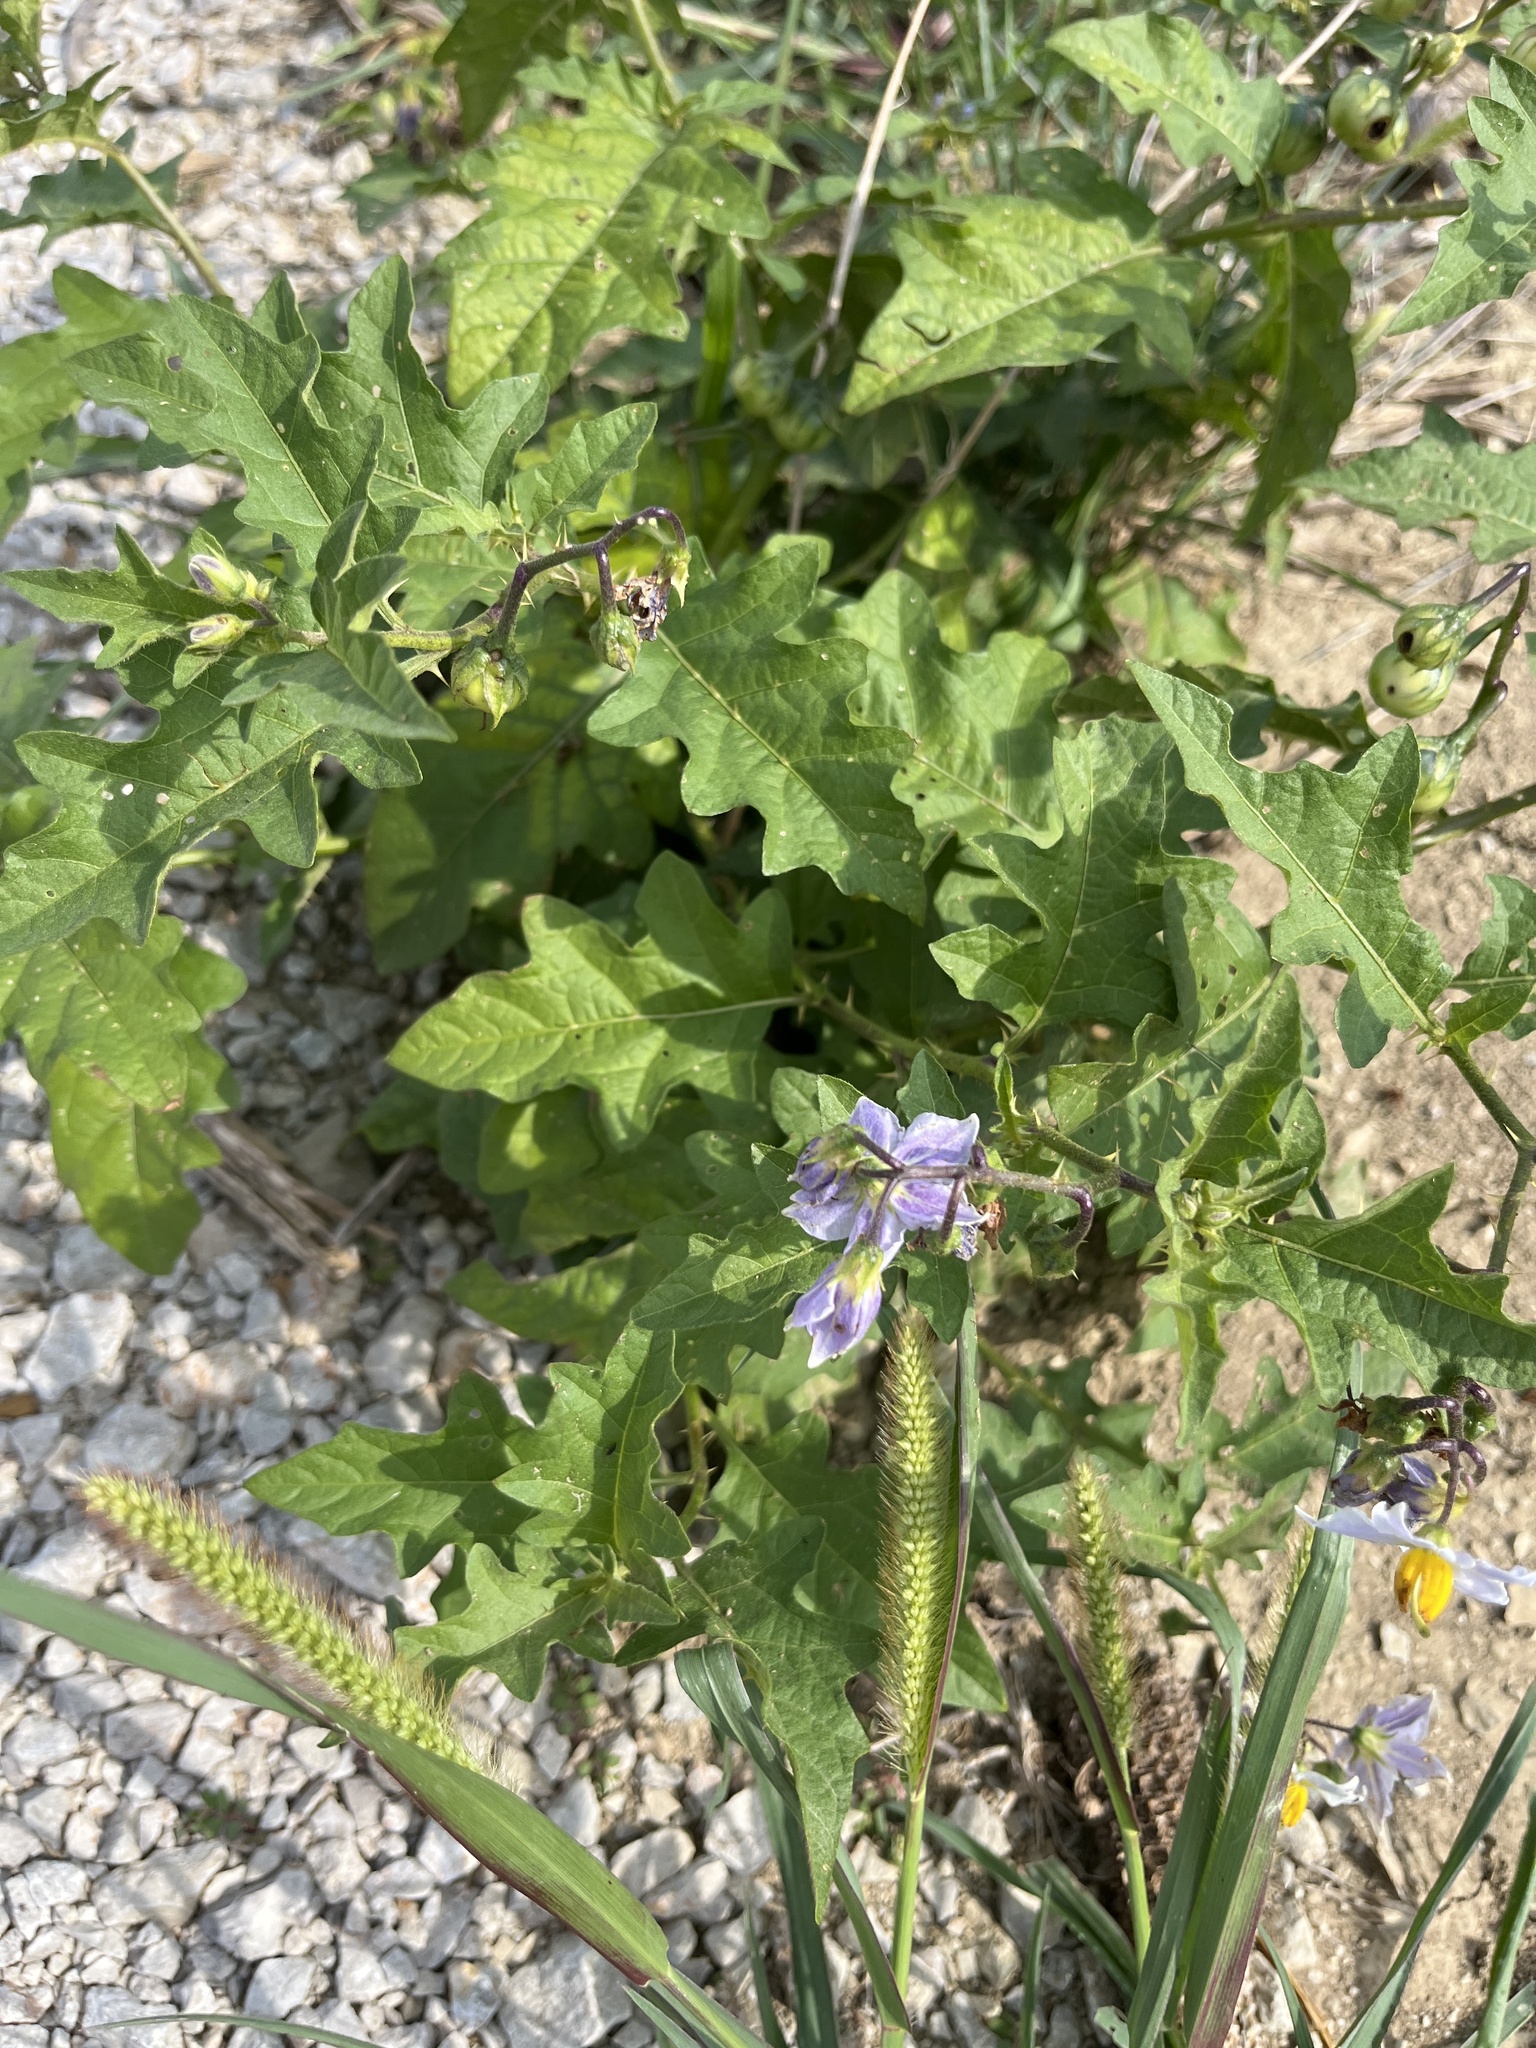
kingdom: Plantae
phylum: Tracheophyta
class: Magnoliopsida
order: Solanales
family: Solanaceae
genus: Solanum
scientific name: Solanum carolinense
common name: Horse-nettle
